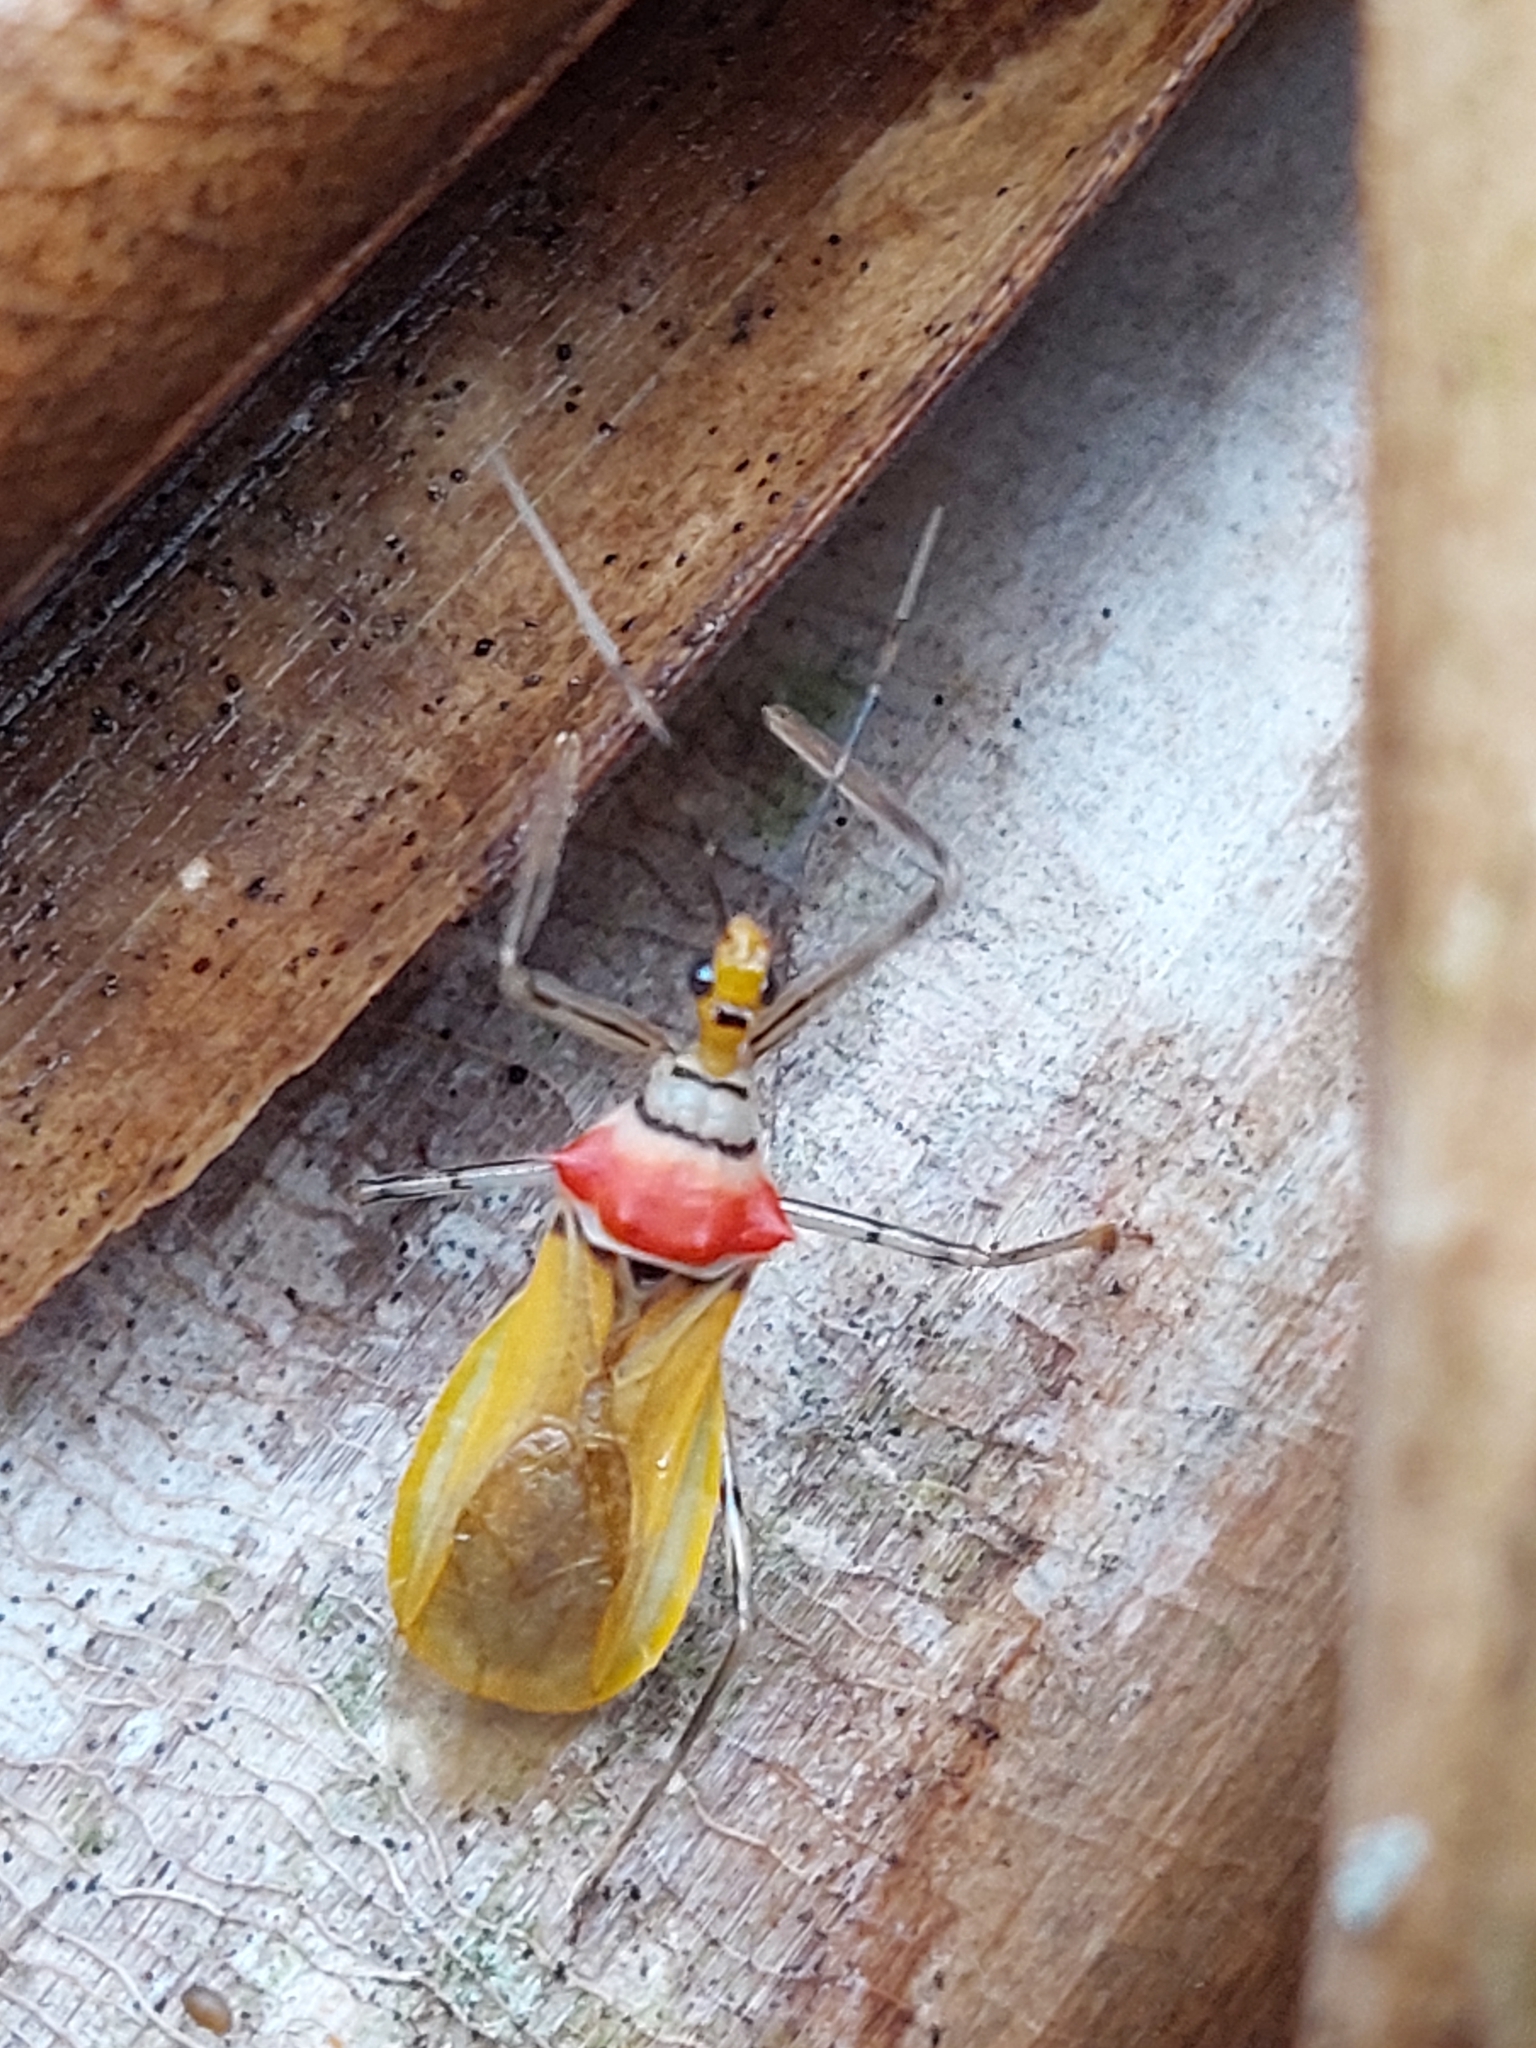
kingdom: Animalia
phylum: Arthropoda
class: Insecta
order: Hemiptera
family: Reduviidae
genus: Castolus
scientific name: Castolus lineatus
